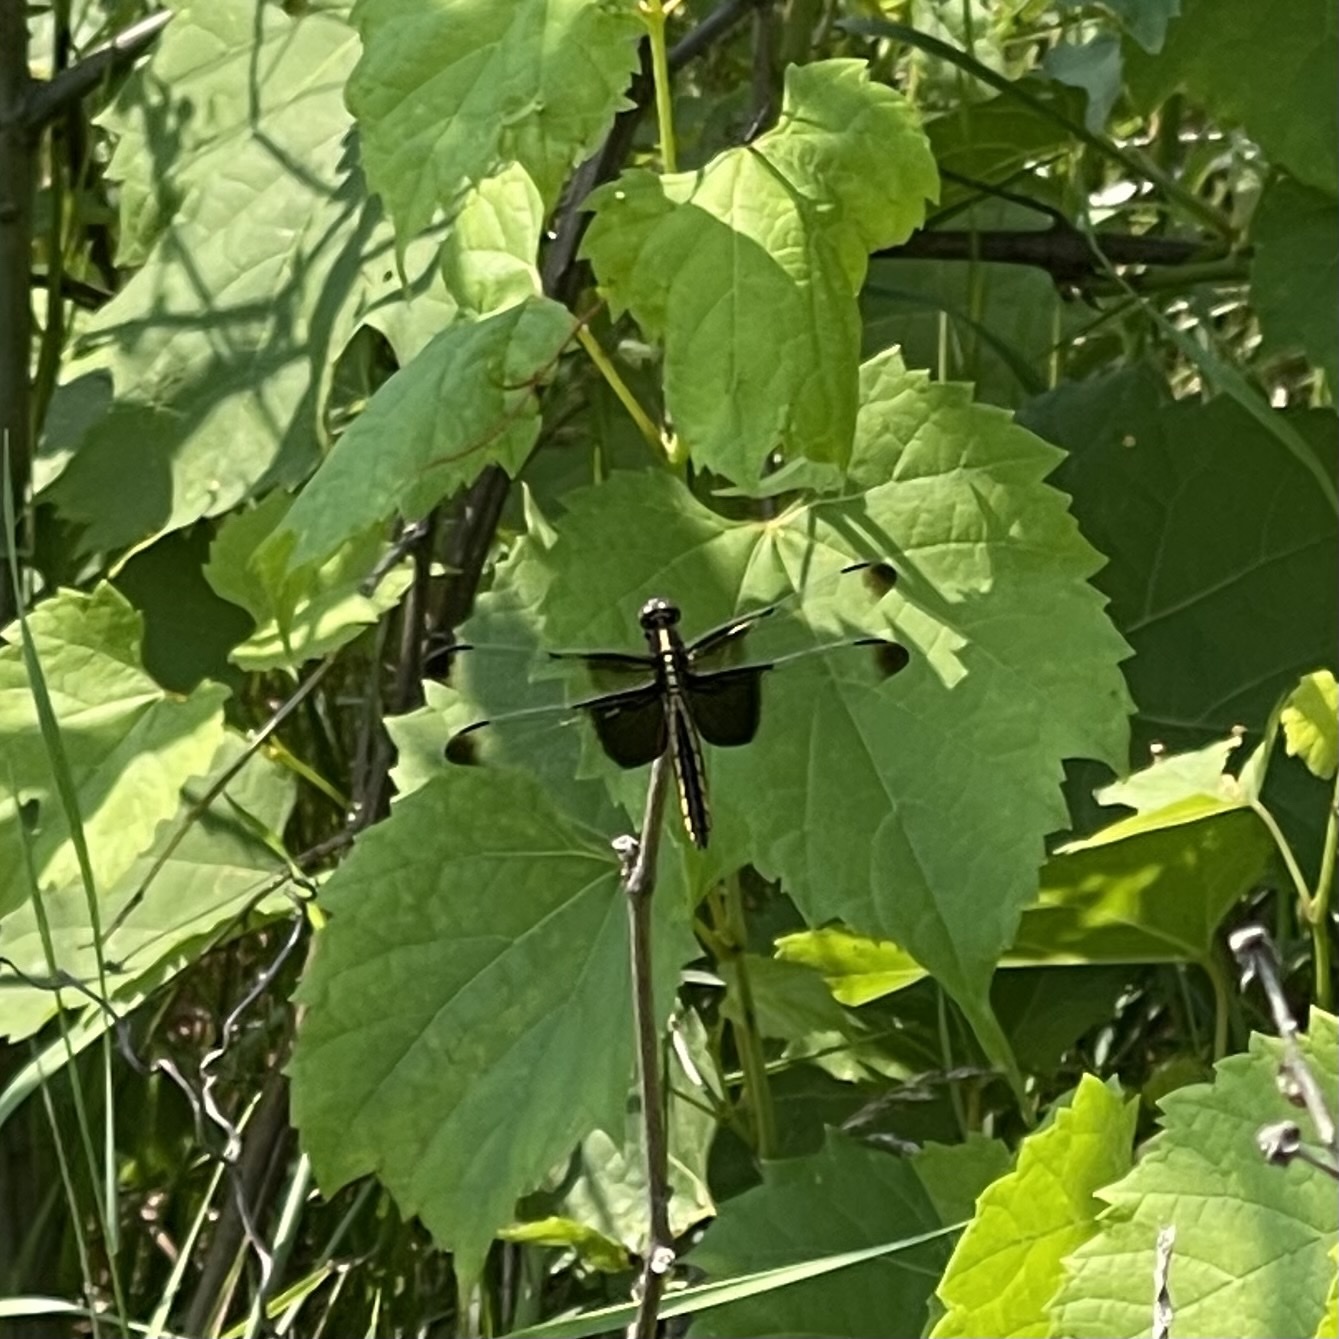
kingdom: Animalia
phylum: Arthropoda
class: Insecta
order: Odonata
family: Libellulidae
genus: Libellula
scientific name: Libellula luctuosa
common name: Widow skimmer
